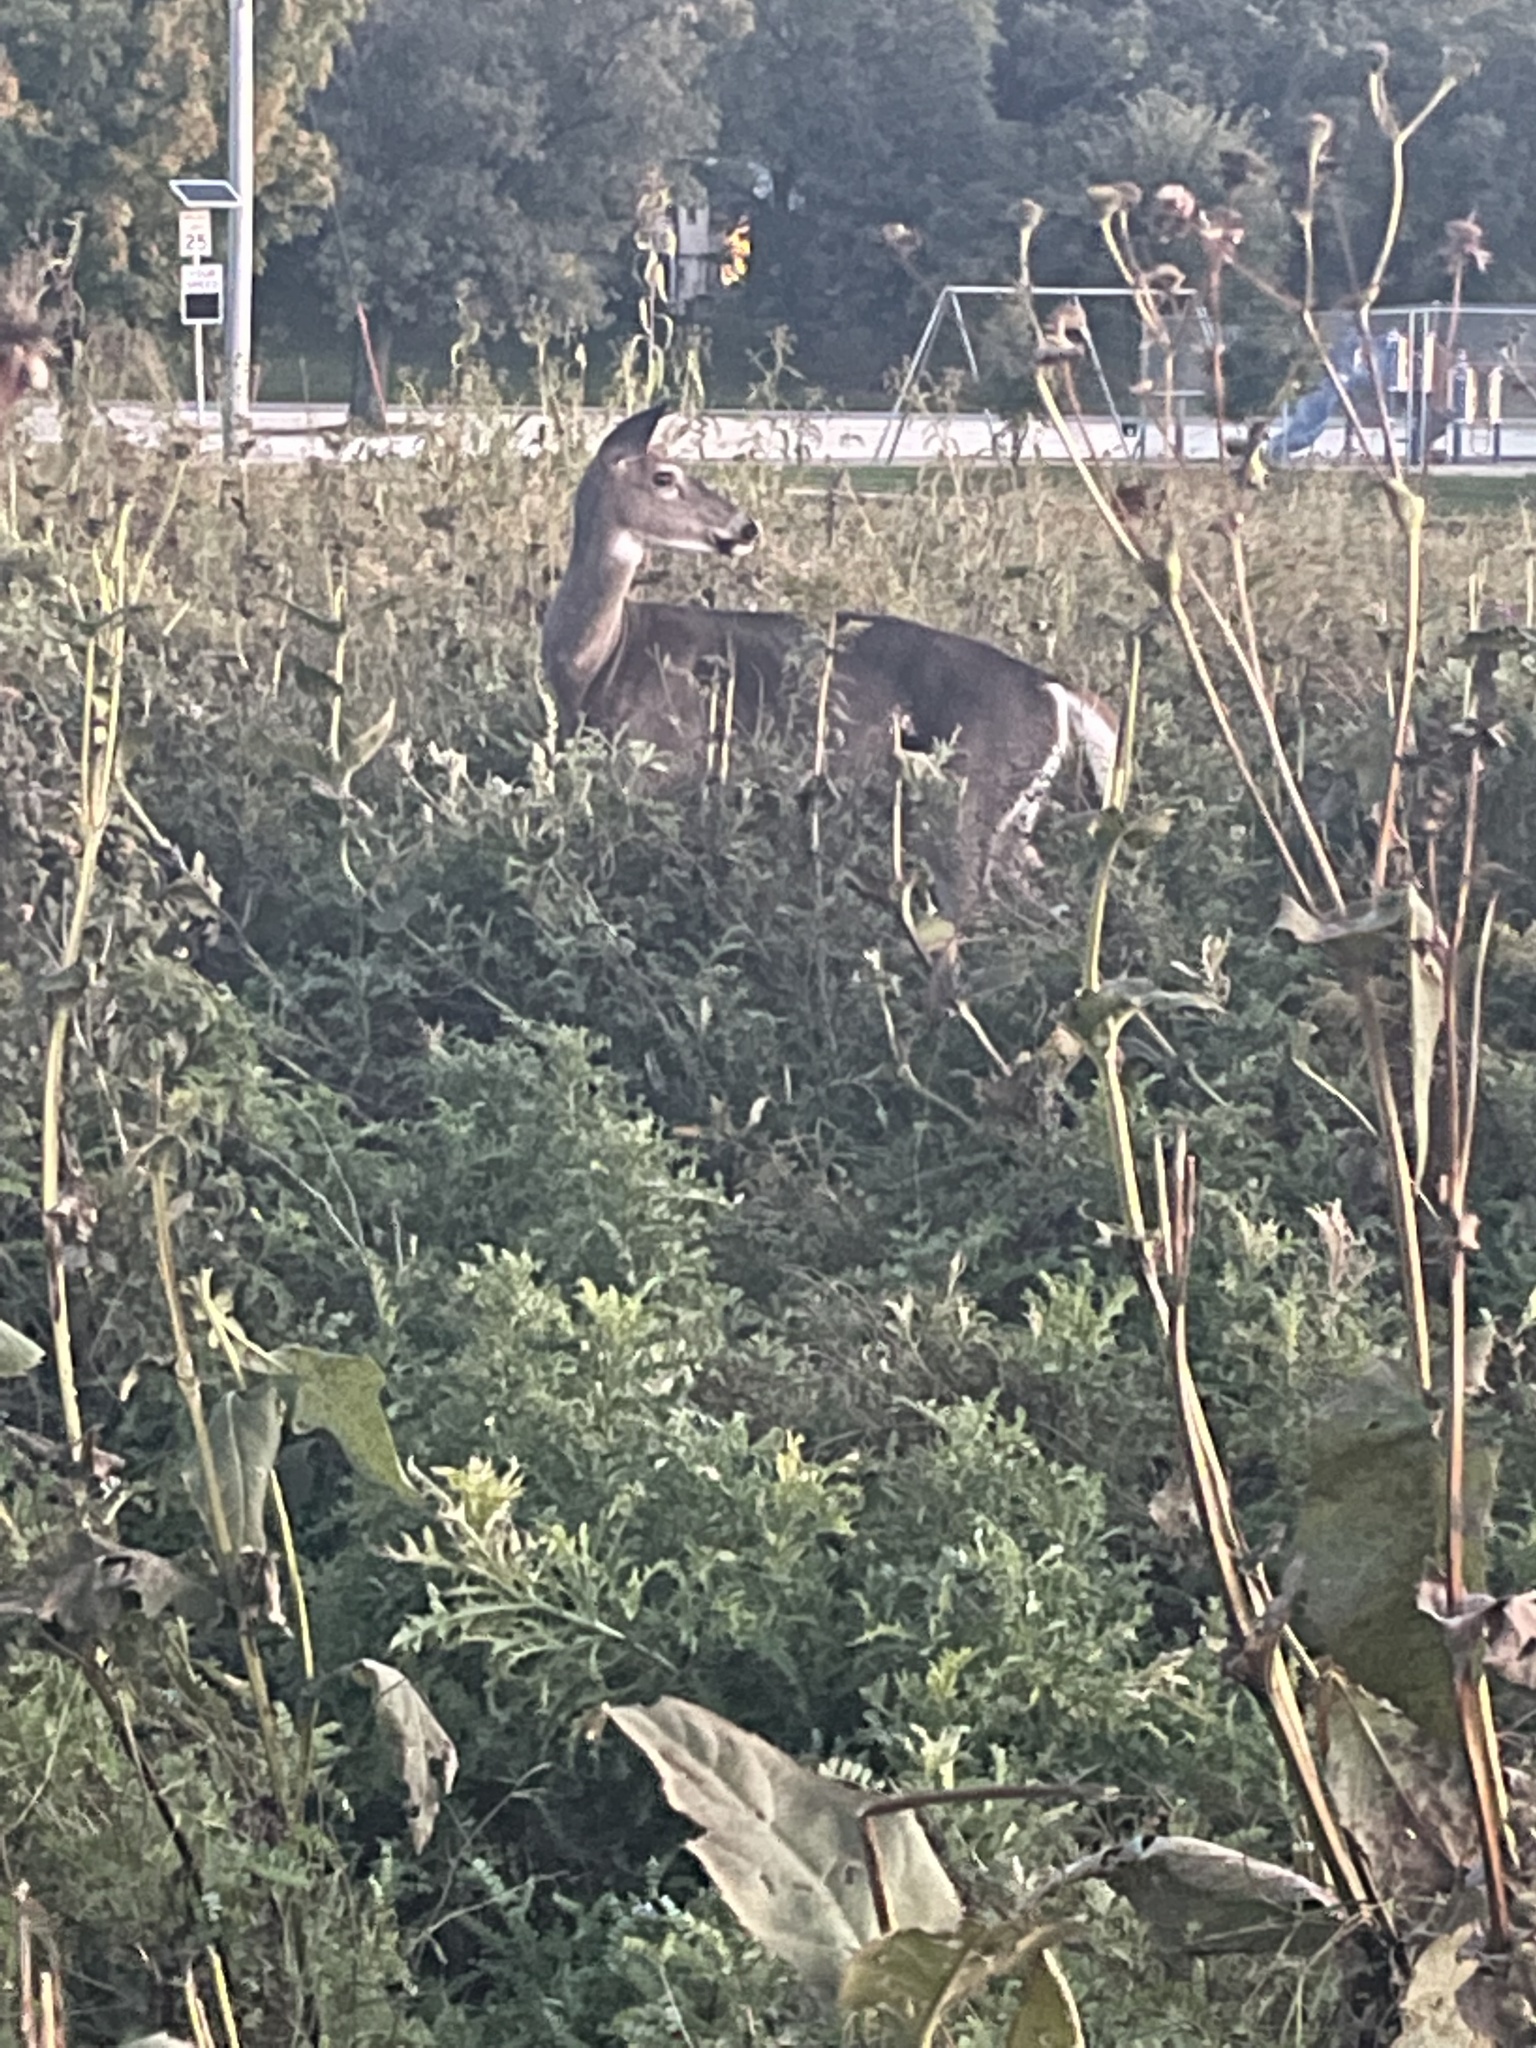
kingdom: Animalia
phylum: Chordata
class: Mammalia
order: Artiodactyla
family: Cervidae
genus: Odocoileus
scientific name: Odocoileus virginianus
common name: White-tailed deer
